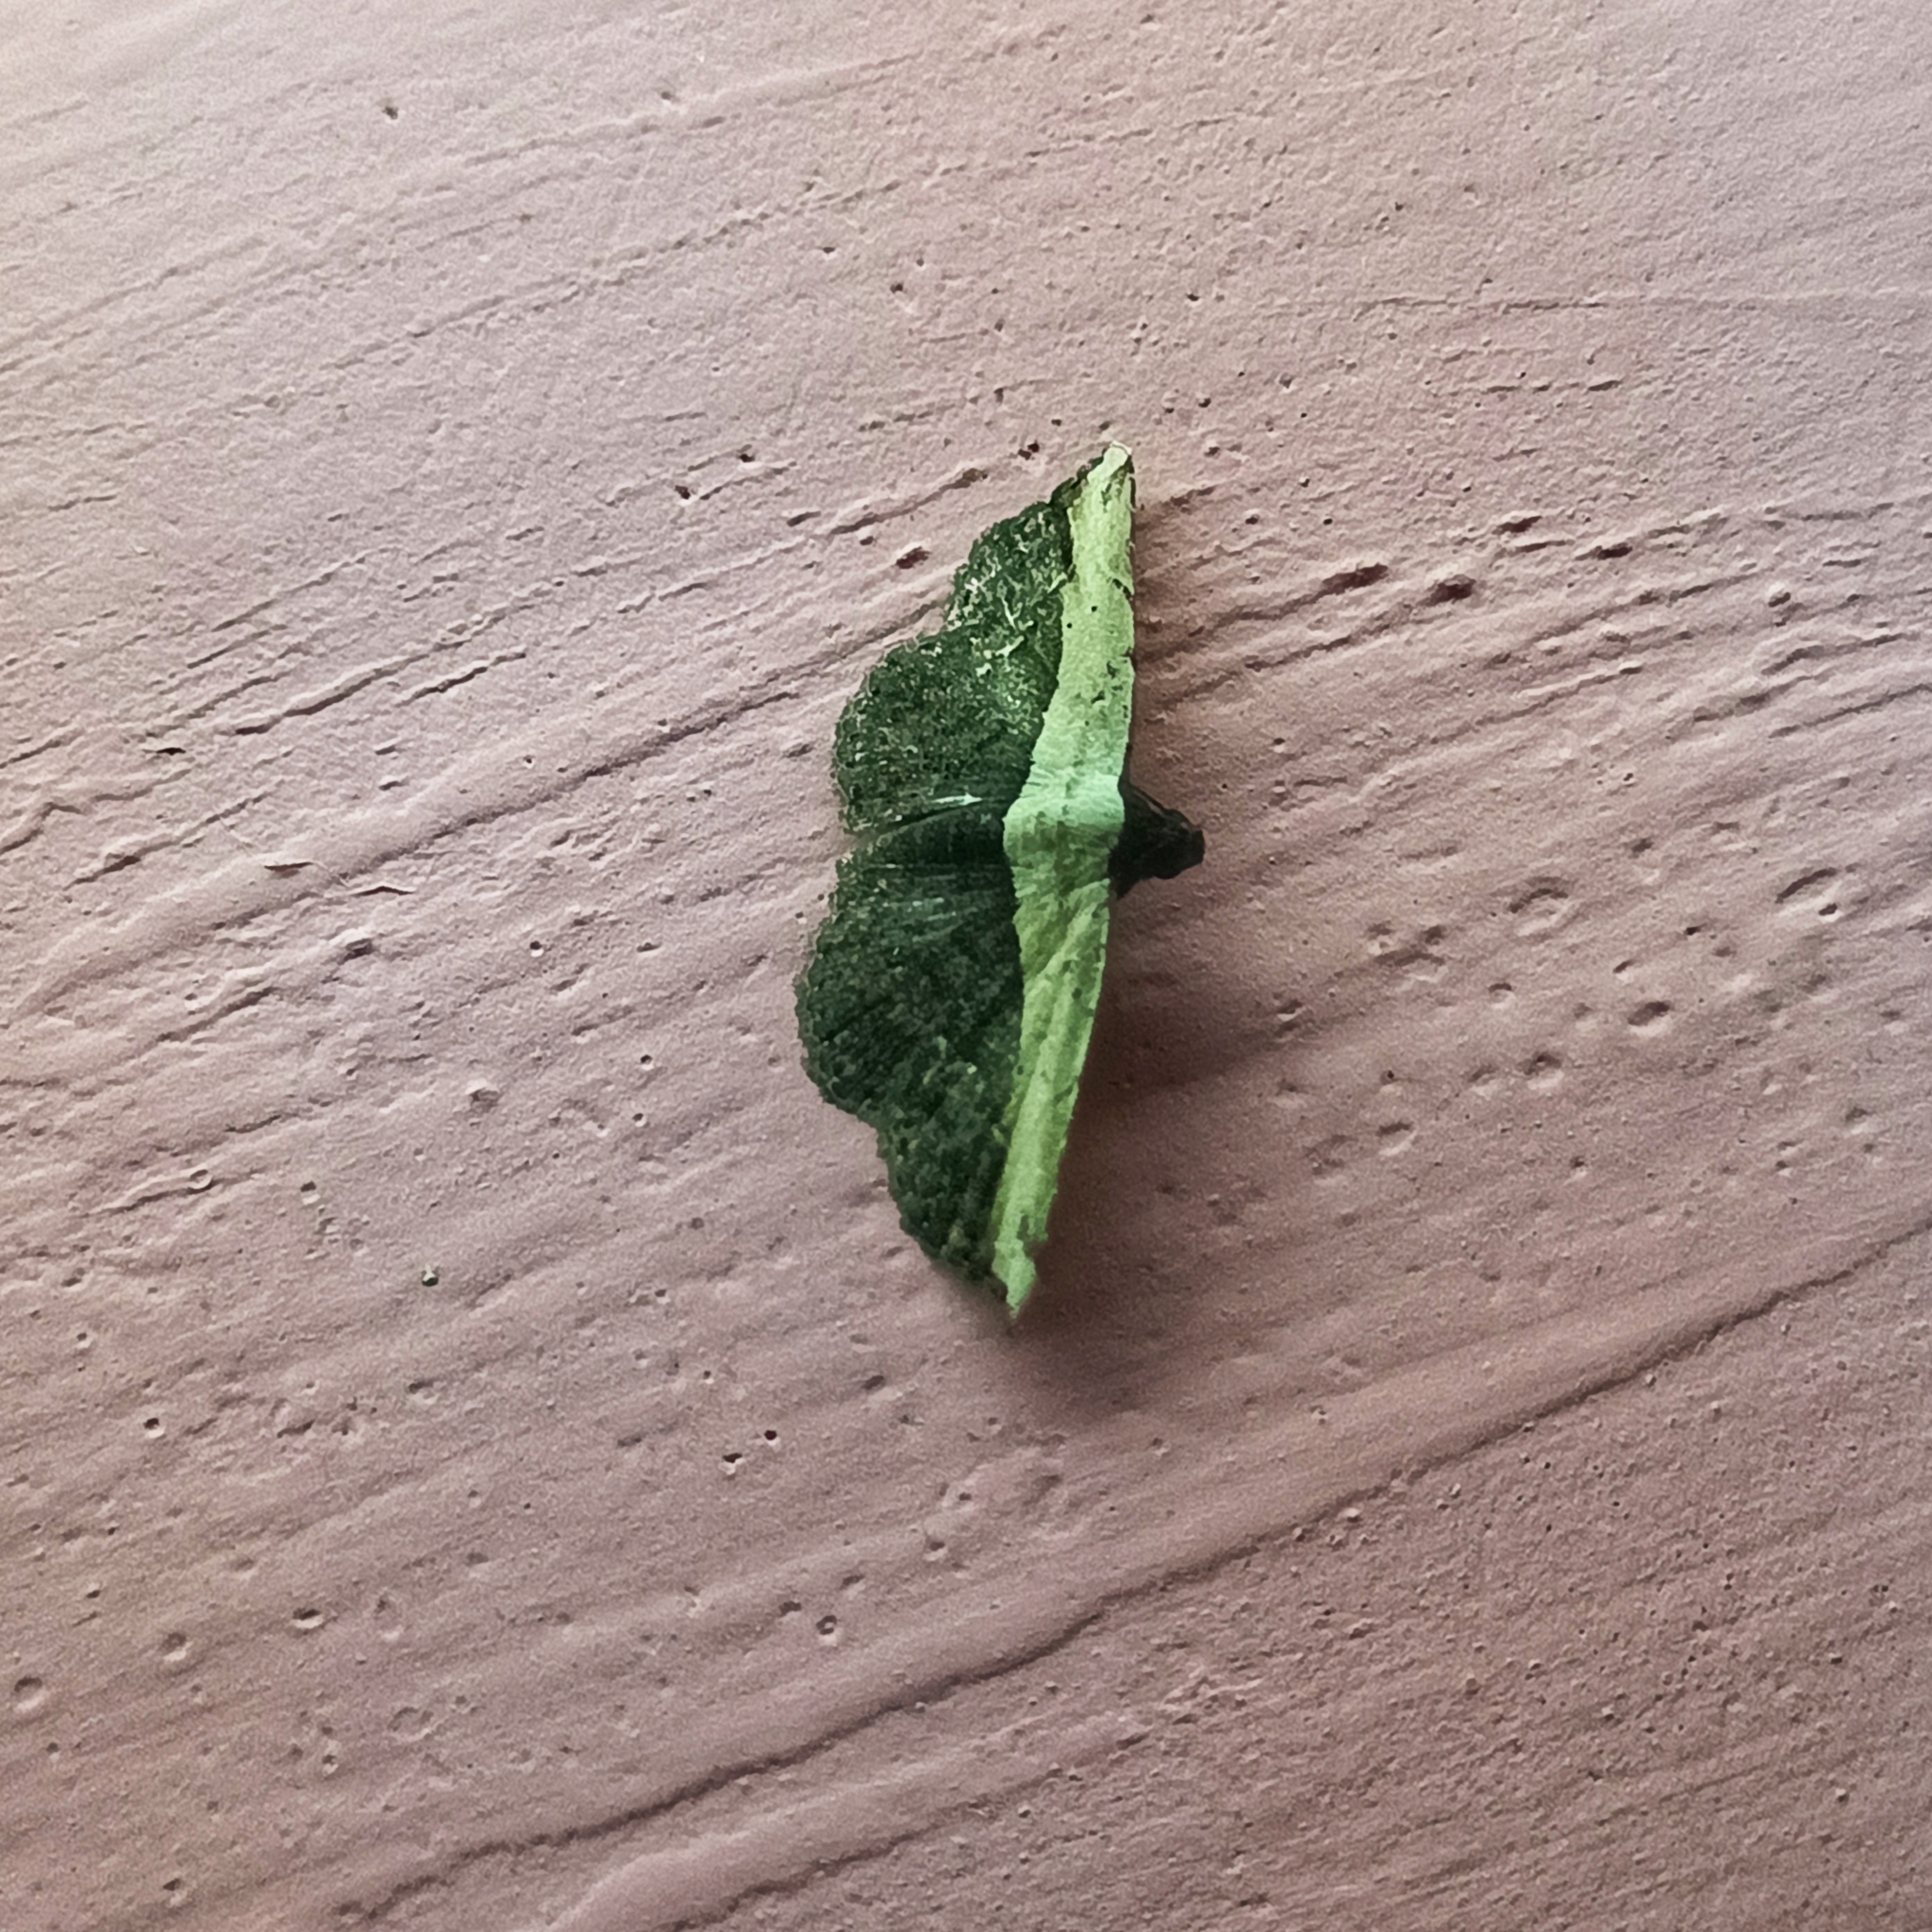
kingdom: Animalia
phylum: Arthropoda
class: Insecta
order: Lepidoptera
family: Noctuidae
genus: Ataboruza
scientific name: Ataboruza divisa
